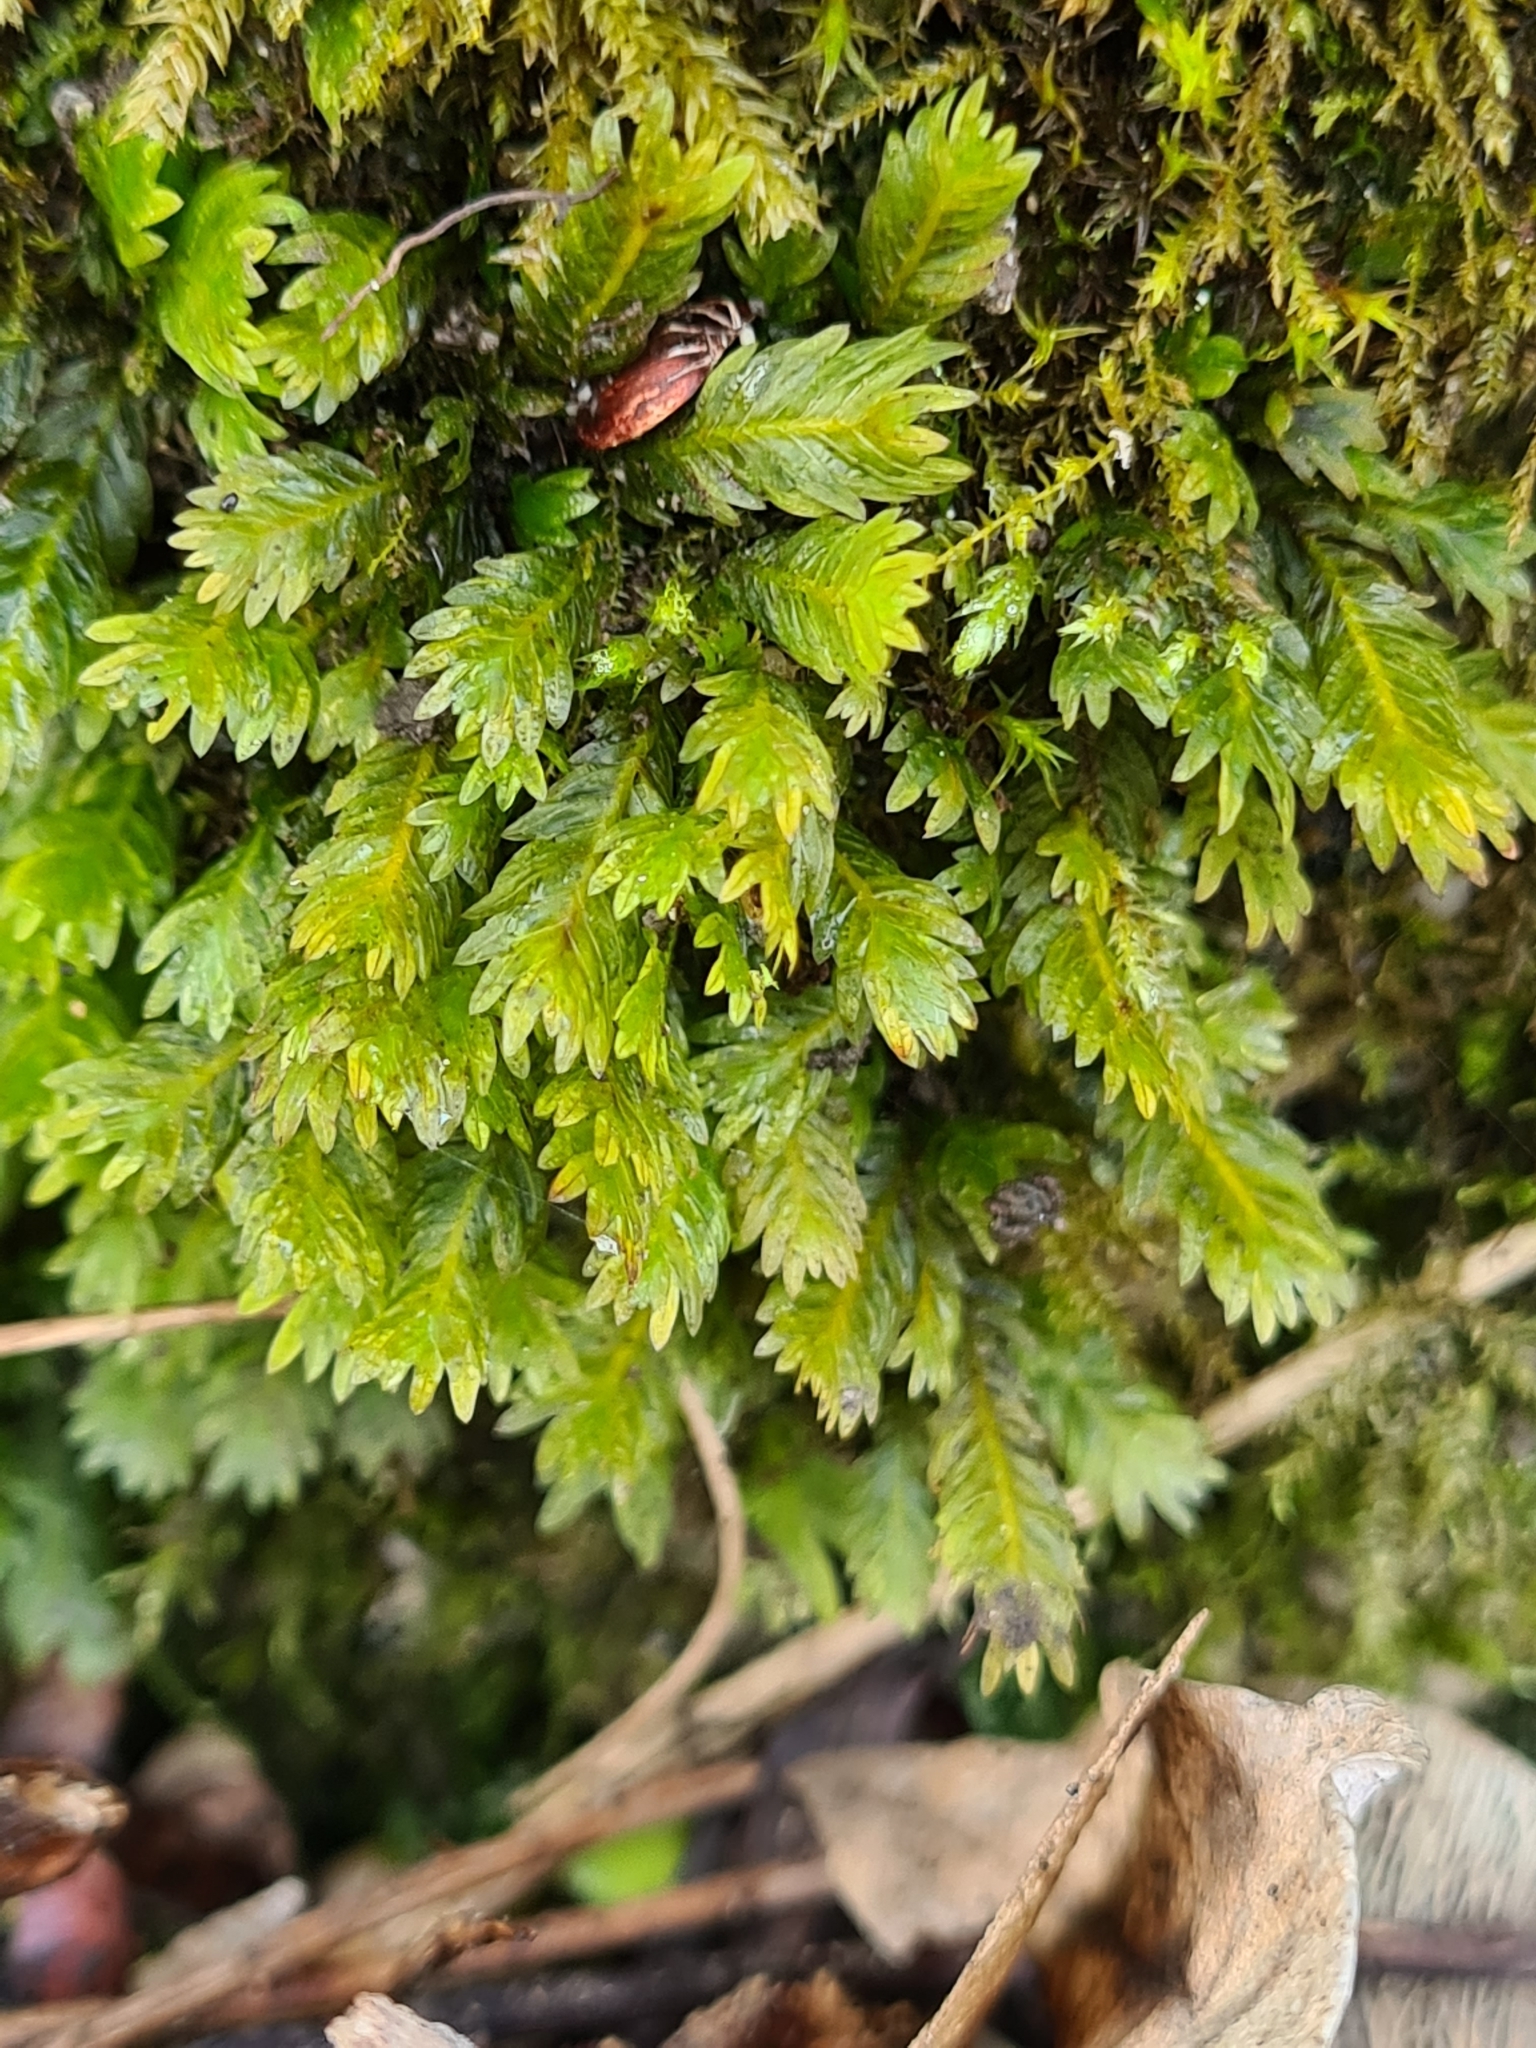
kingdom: Plantae
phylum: Bryophyta
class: Bryopsida
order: Dicranales
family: Fissidentaceae
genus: Fissidens
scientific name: Fissidens dubius
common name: Rock pocket moss
